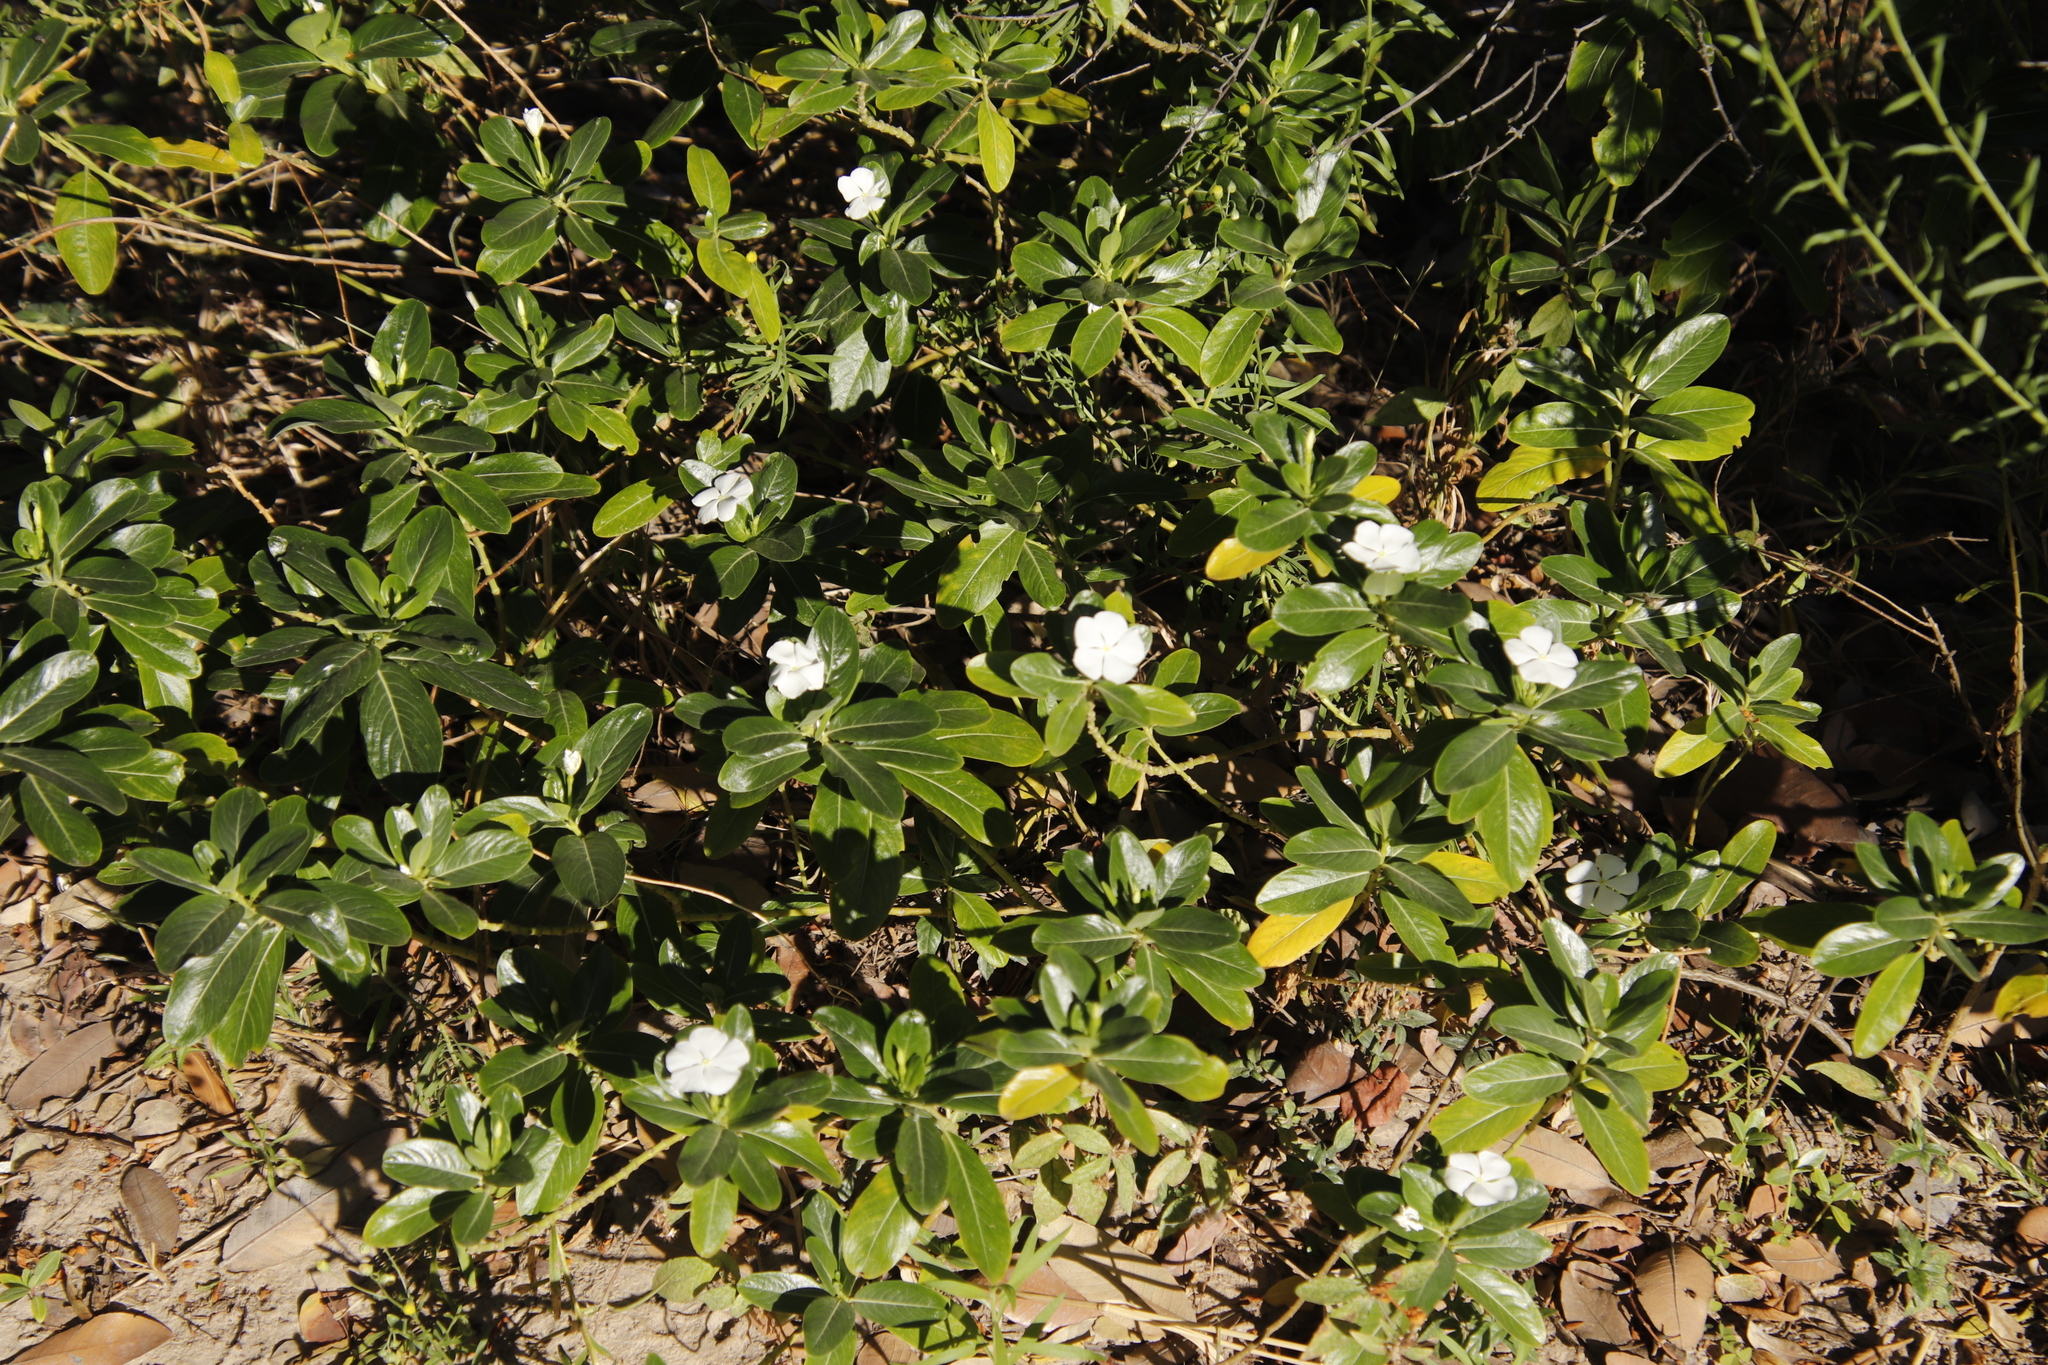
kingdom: Plantae
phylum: Tracheophyta
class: Magnoliopsida
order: Gentianales
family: Apocynaceae
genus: Catharanthus
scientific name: Catharanthus roseus
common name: Madagascar periwinkle
